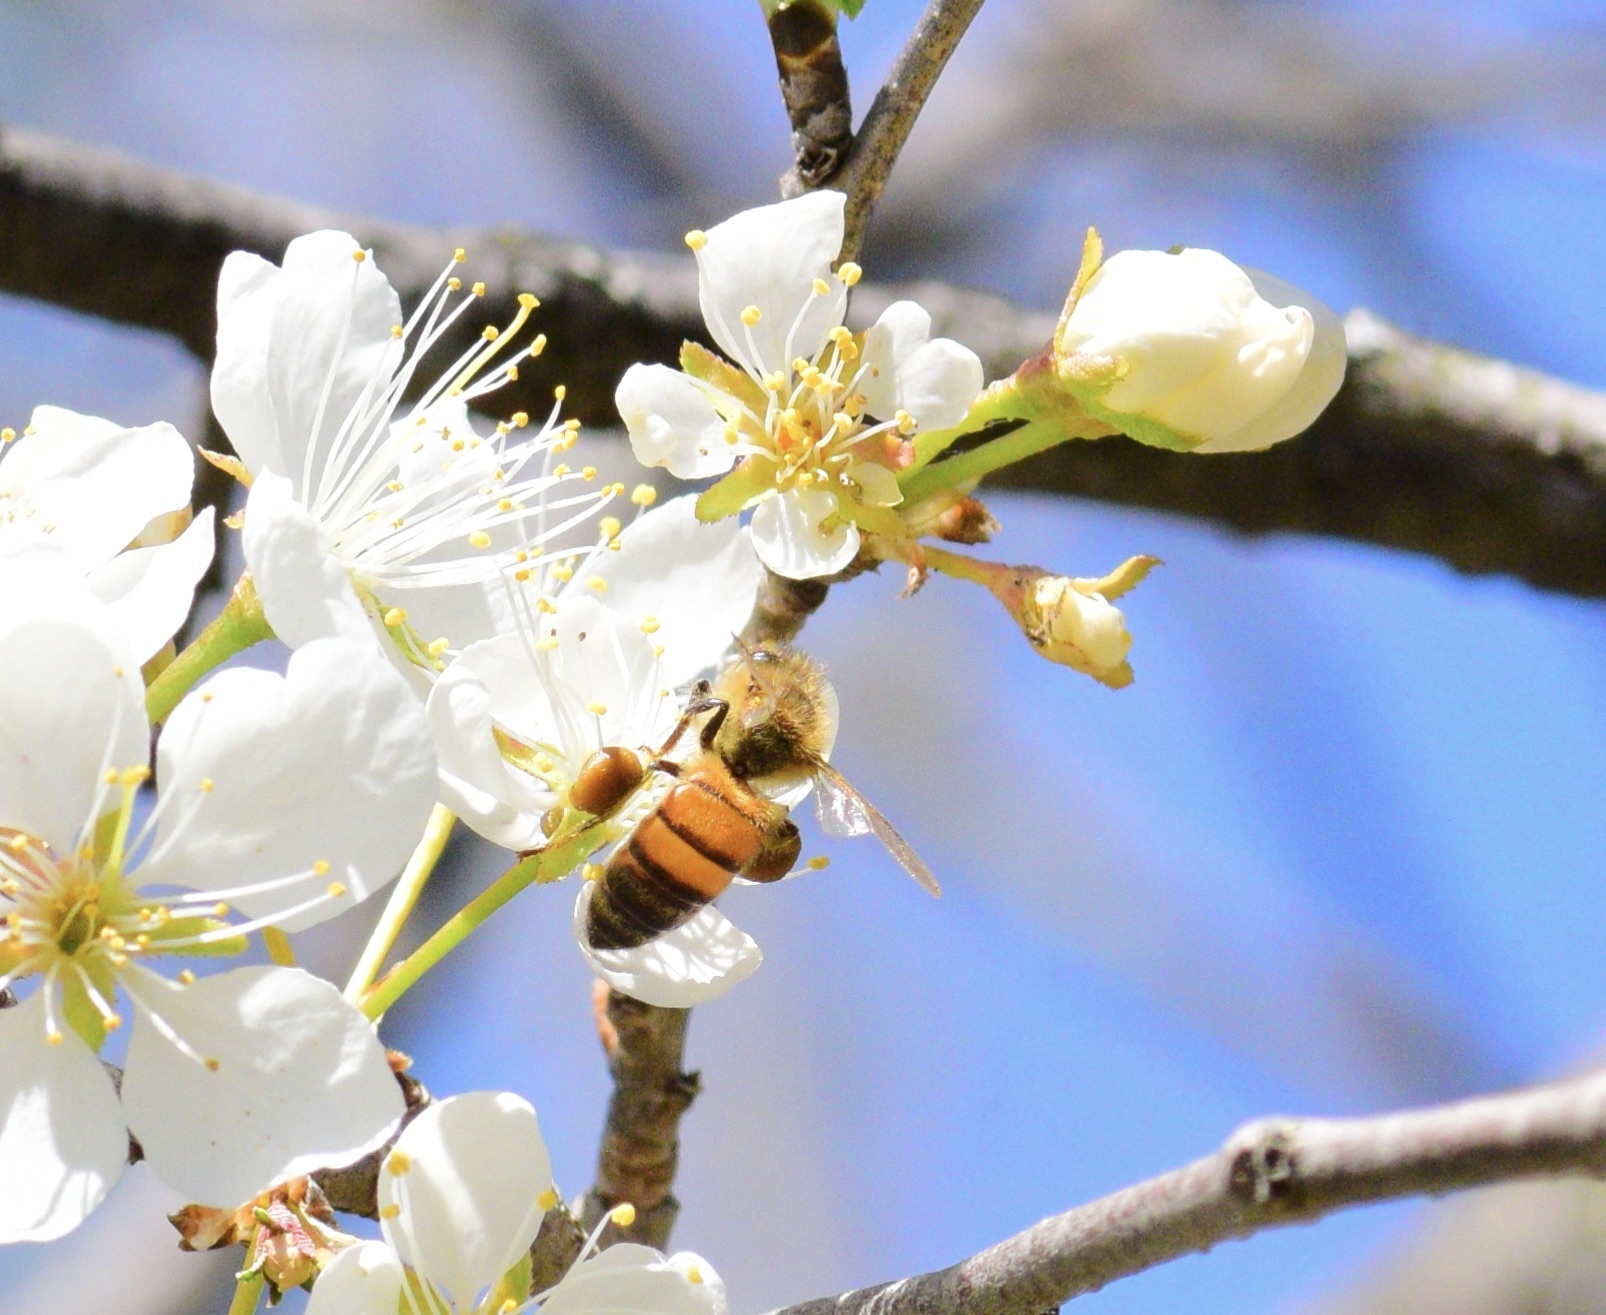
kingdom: Animalia
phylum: Arthropoda
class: Insecta
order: Hymenoptera
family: Apidae
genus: Apis
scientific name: Apis mellifera
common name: Honey bee
